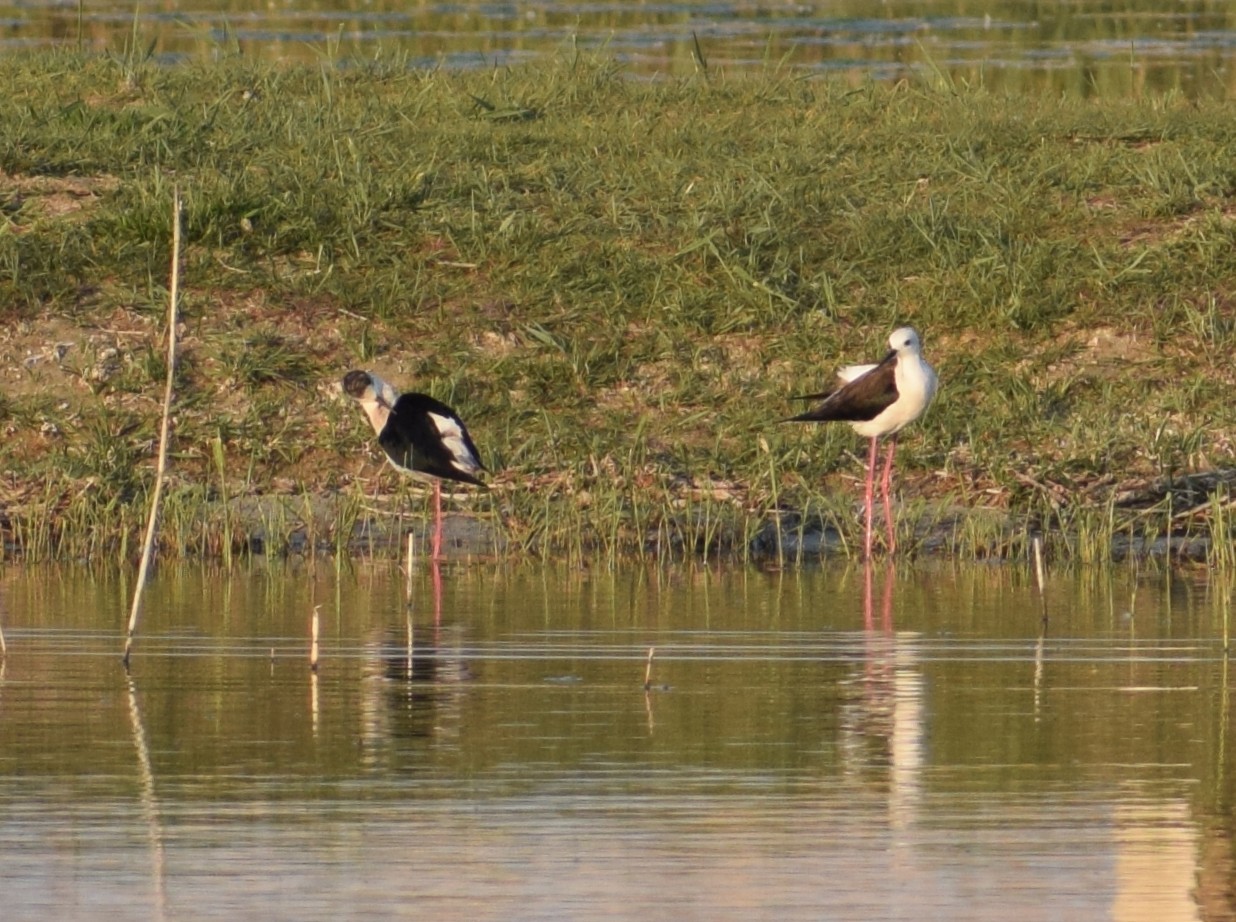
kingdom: Animalia
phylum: Chordata
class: Aves
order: Charadriiformes
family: Recurvirostridae
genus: Himantopus
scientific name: Himantopus himantopus
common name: Black-winged stilt
